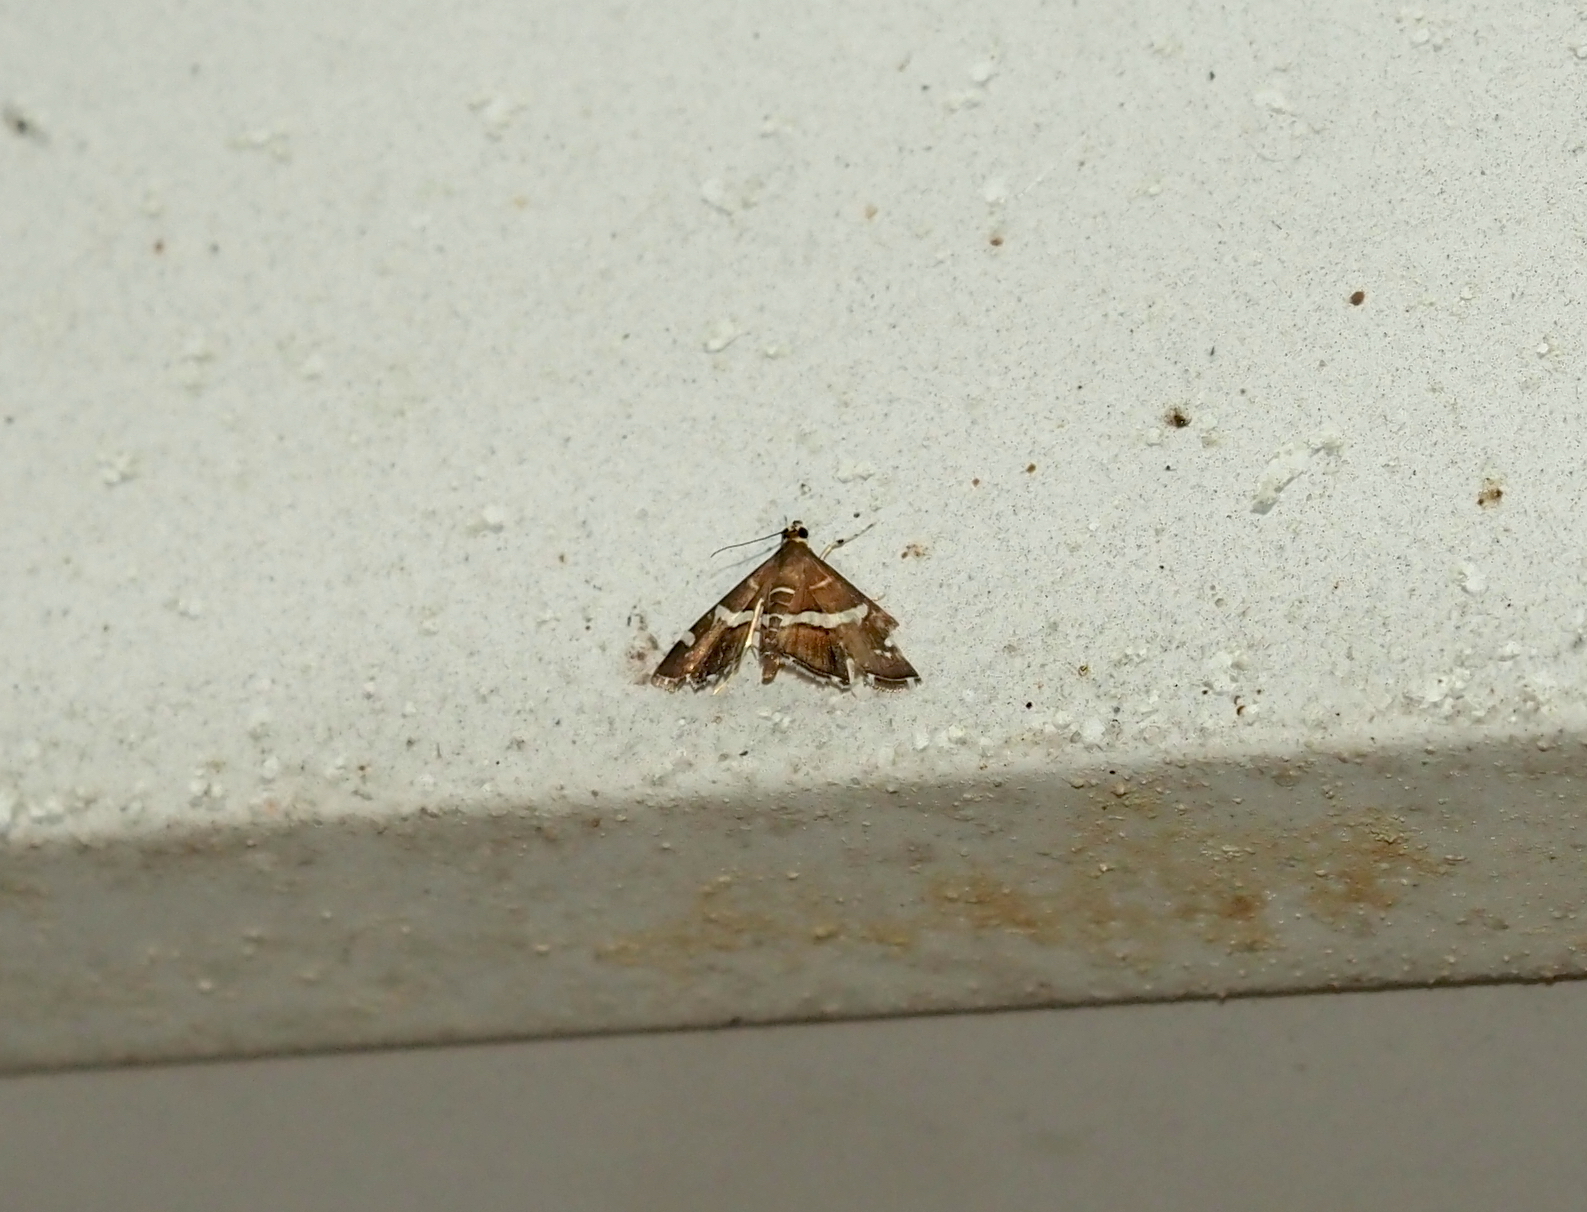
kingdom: Animalia
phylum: Arthropoda
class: Insecta
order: Lepidoptera
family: Crambidae
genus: Spoladea
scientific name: Spoladea recurvalis
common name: Beet webworm moth
